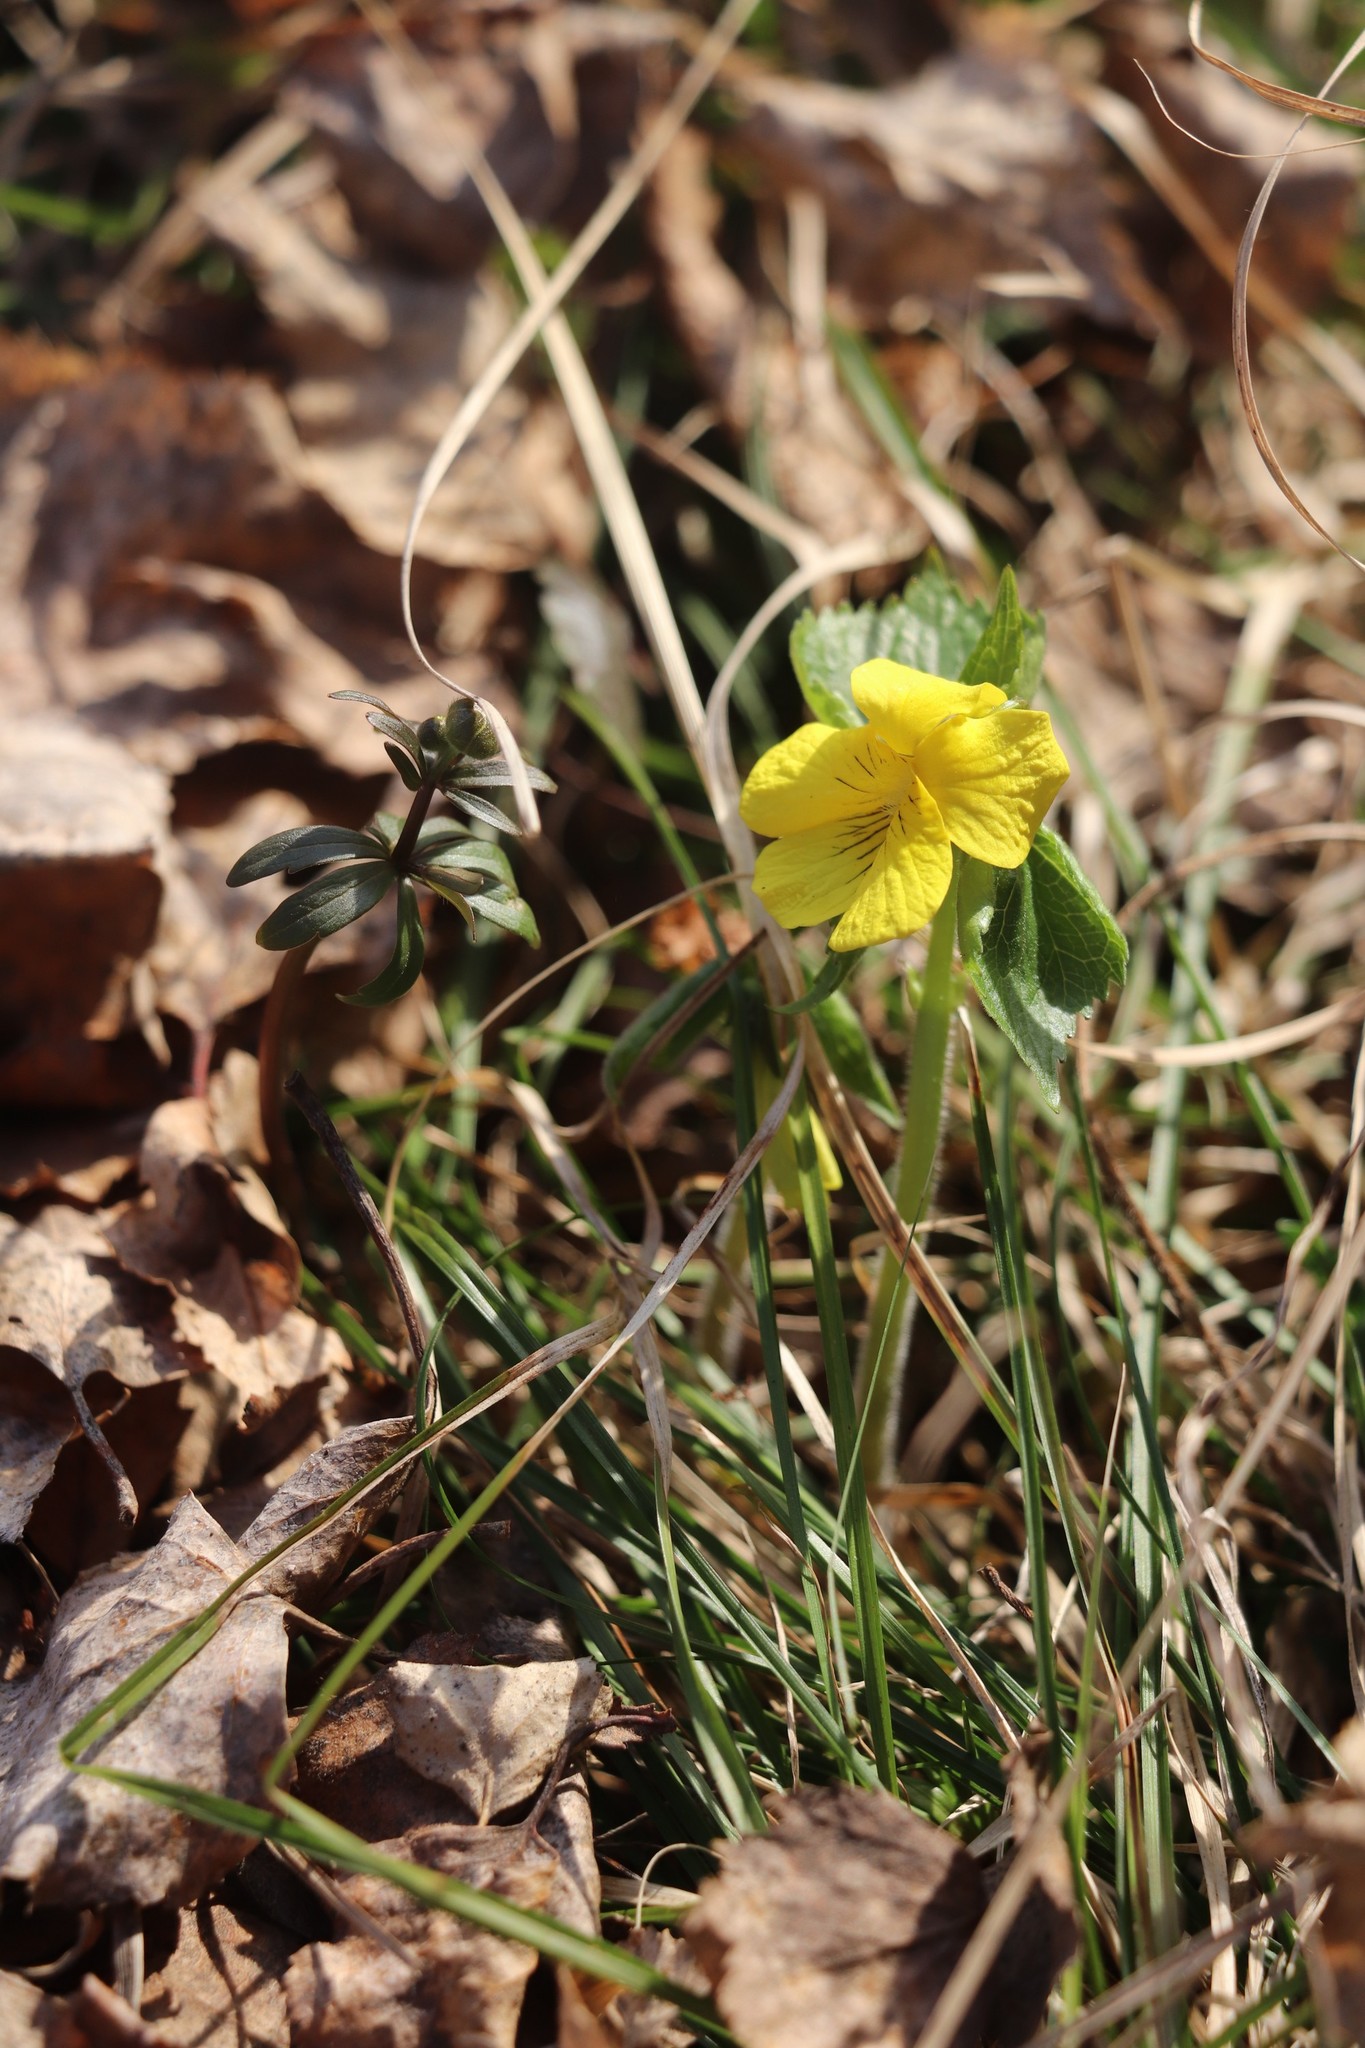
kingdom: Plantae
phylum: Tracheophyta
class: Magnoliopsida
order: Malpighiales
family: Violaceae
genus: Viola
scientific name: Viola uniflora
